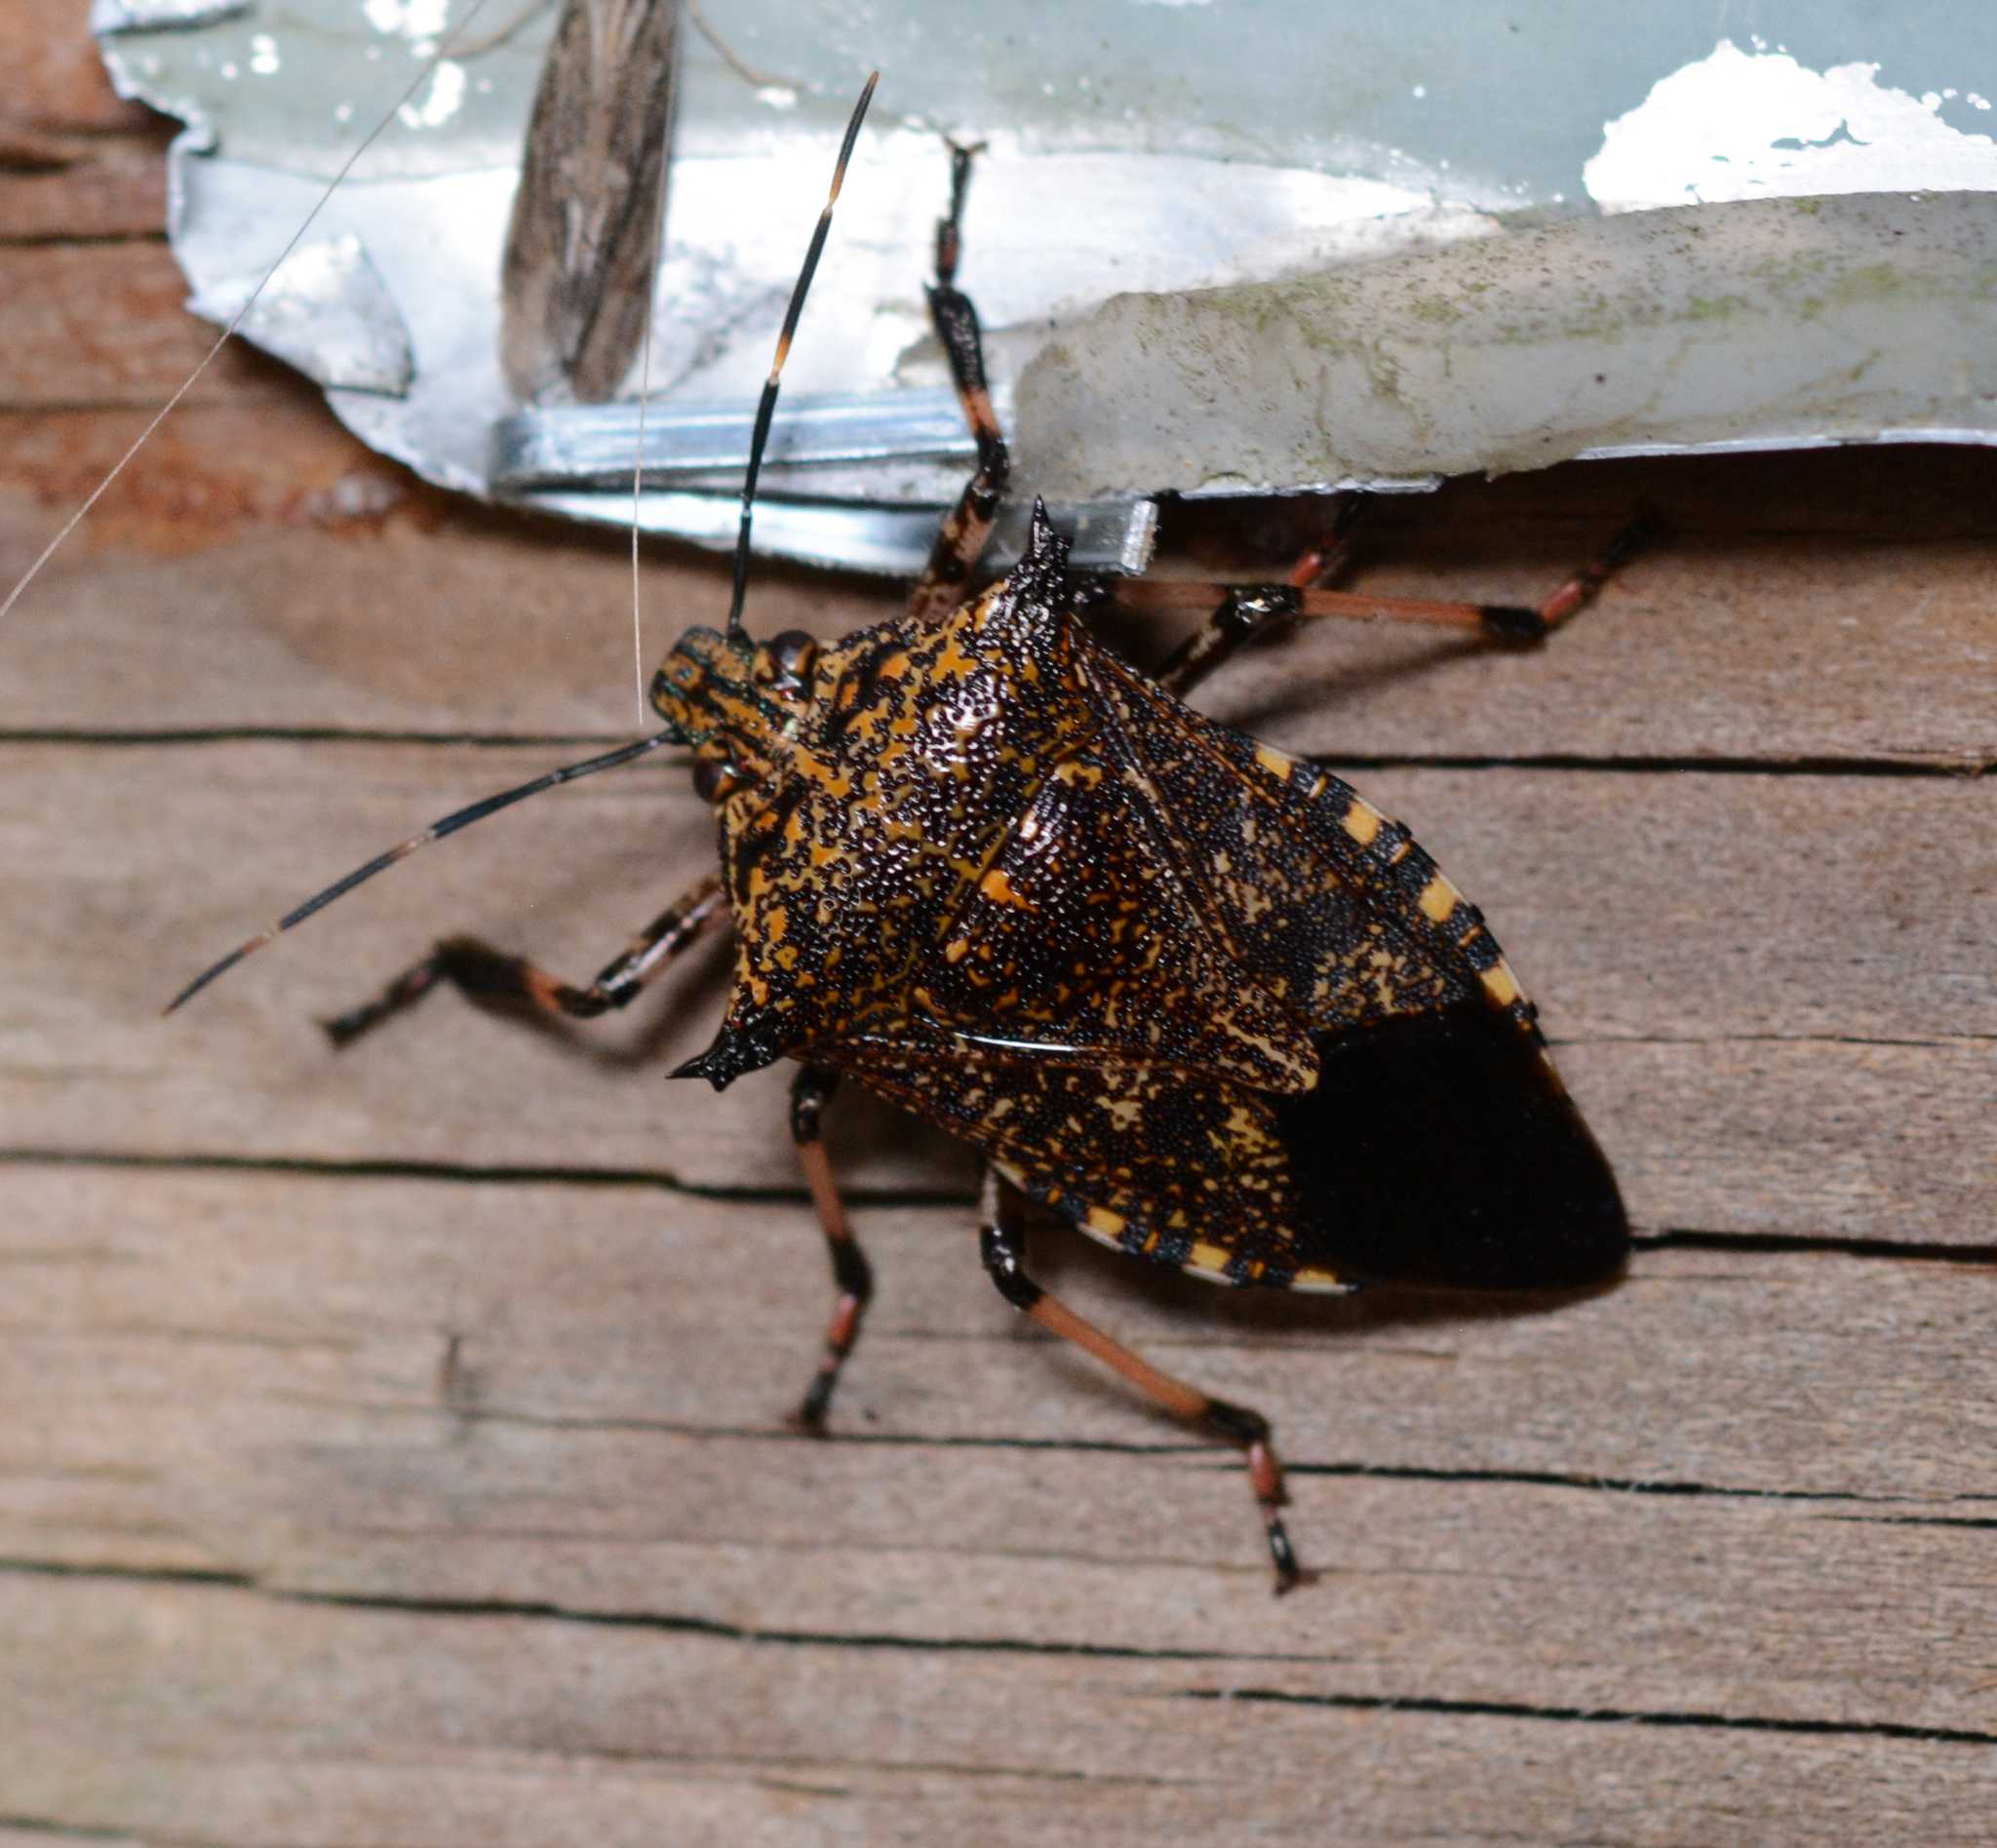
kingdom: Animalia
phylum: Arthropoda
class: Insecta
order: Hemiptera
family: Pentatomidae
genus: Alcaeorrhynchus
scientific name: Alcaeorrhynchus grandis
